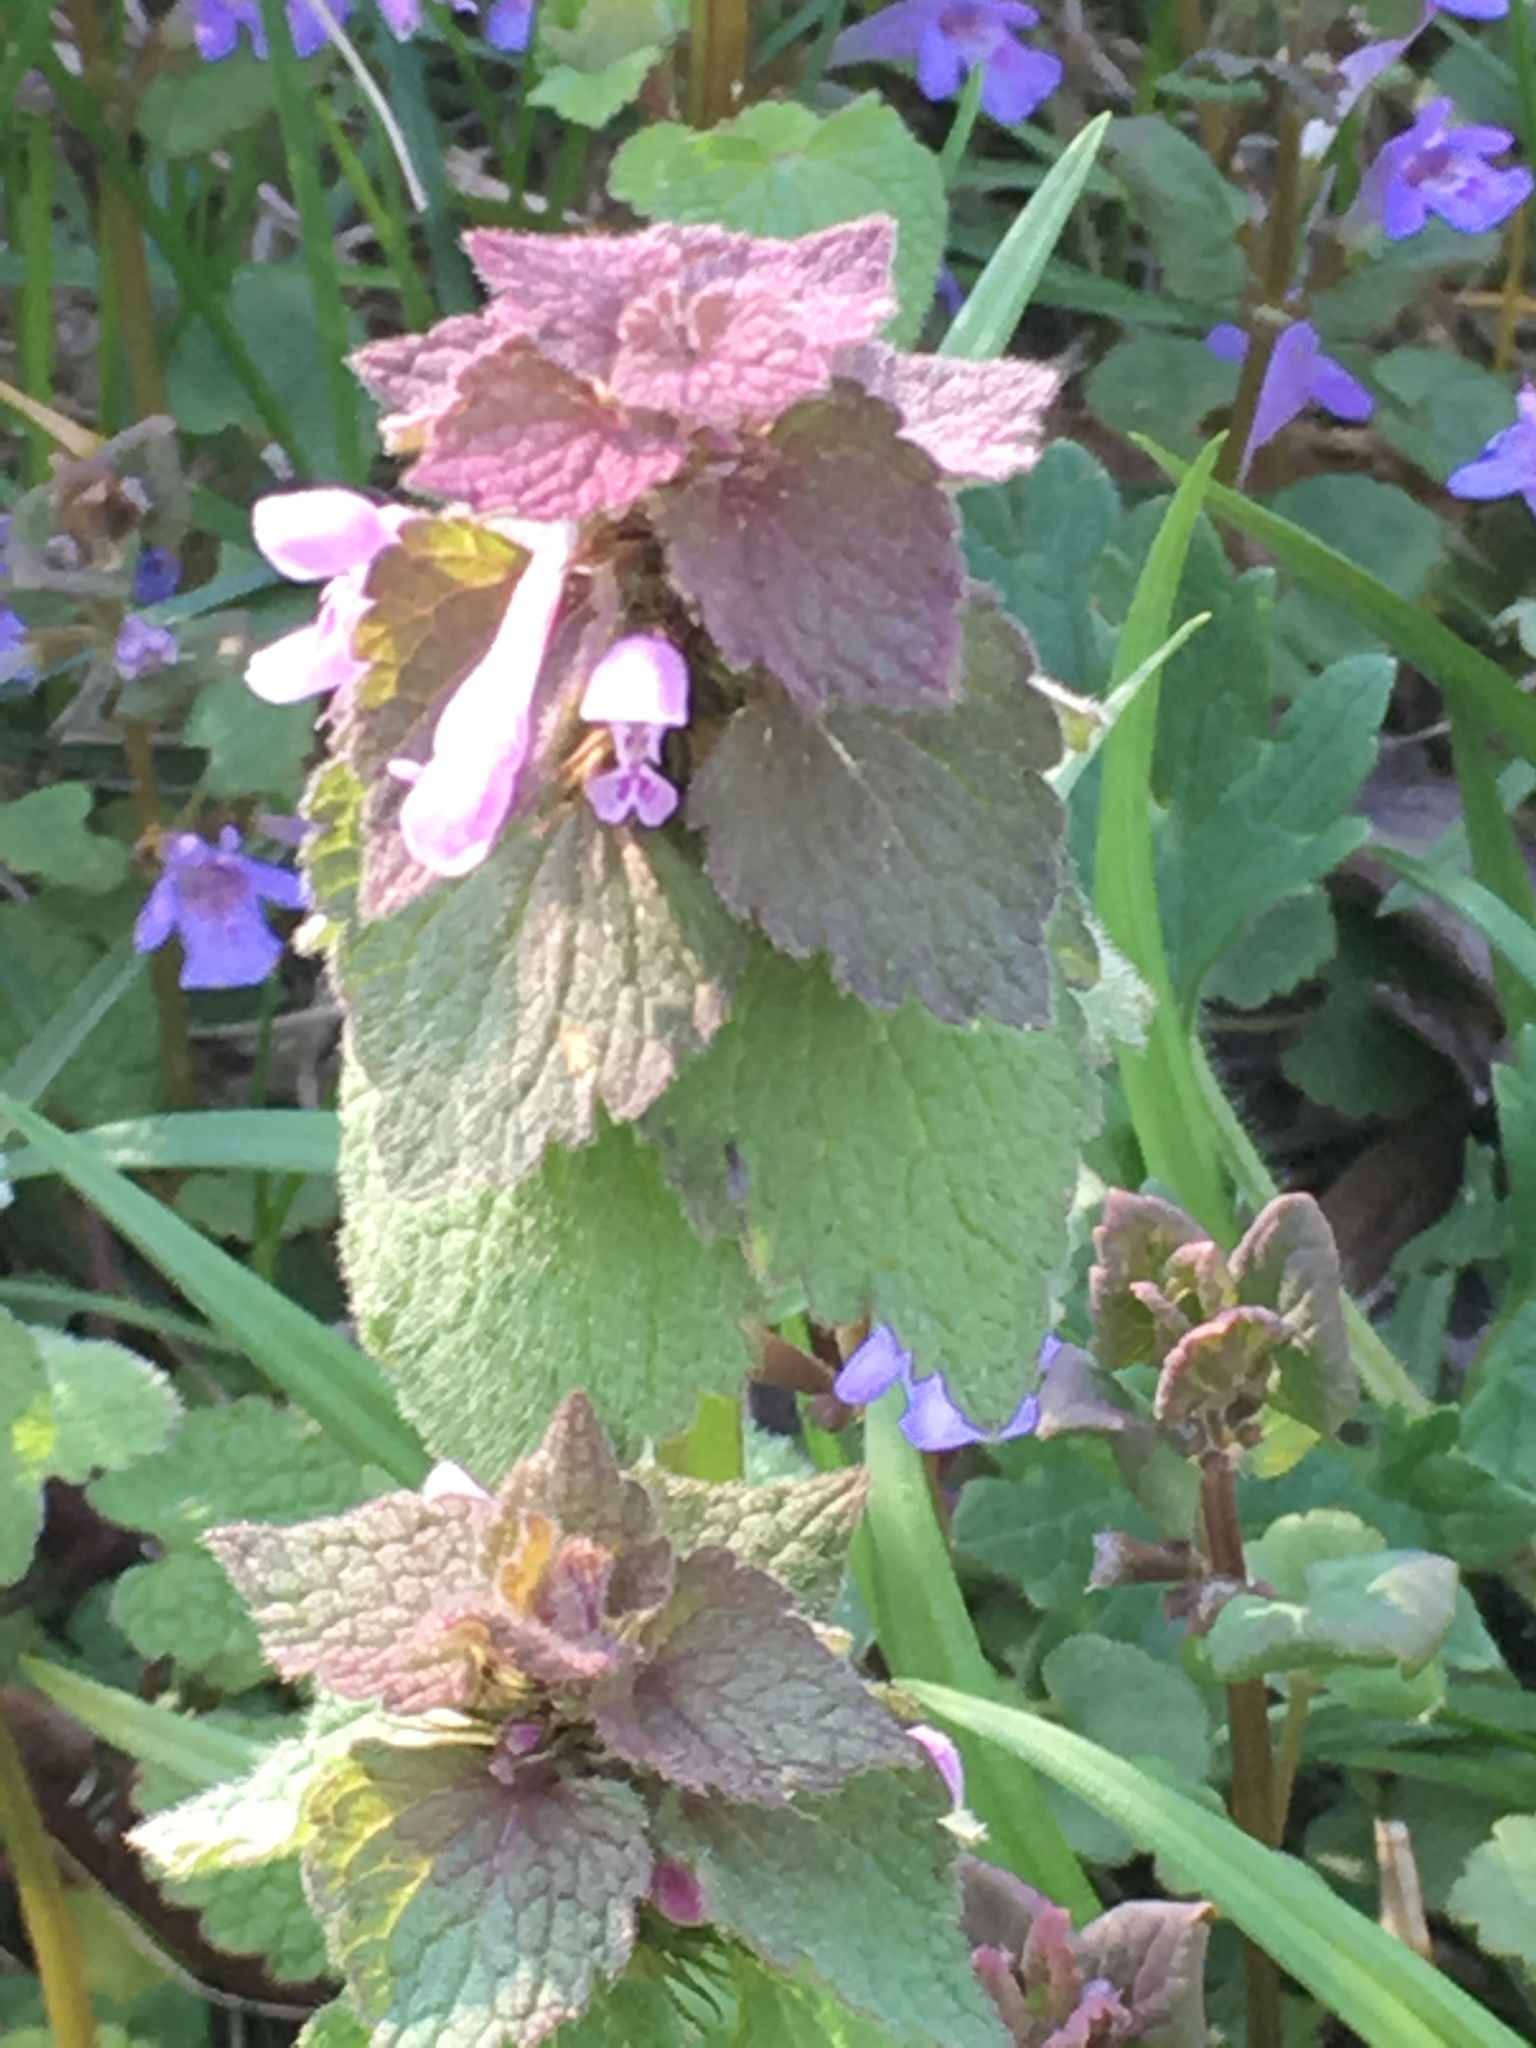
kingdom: Plantae
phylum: Tracheophyta
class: Magnoliopsida
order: Lamiales
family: Lamiaceae
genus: Lamium
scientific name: Lamium purpureum
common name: Red dead-nettle
